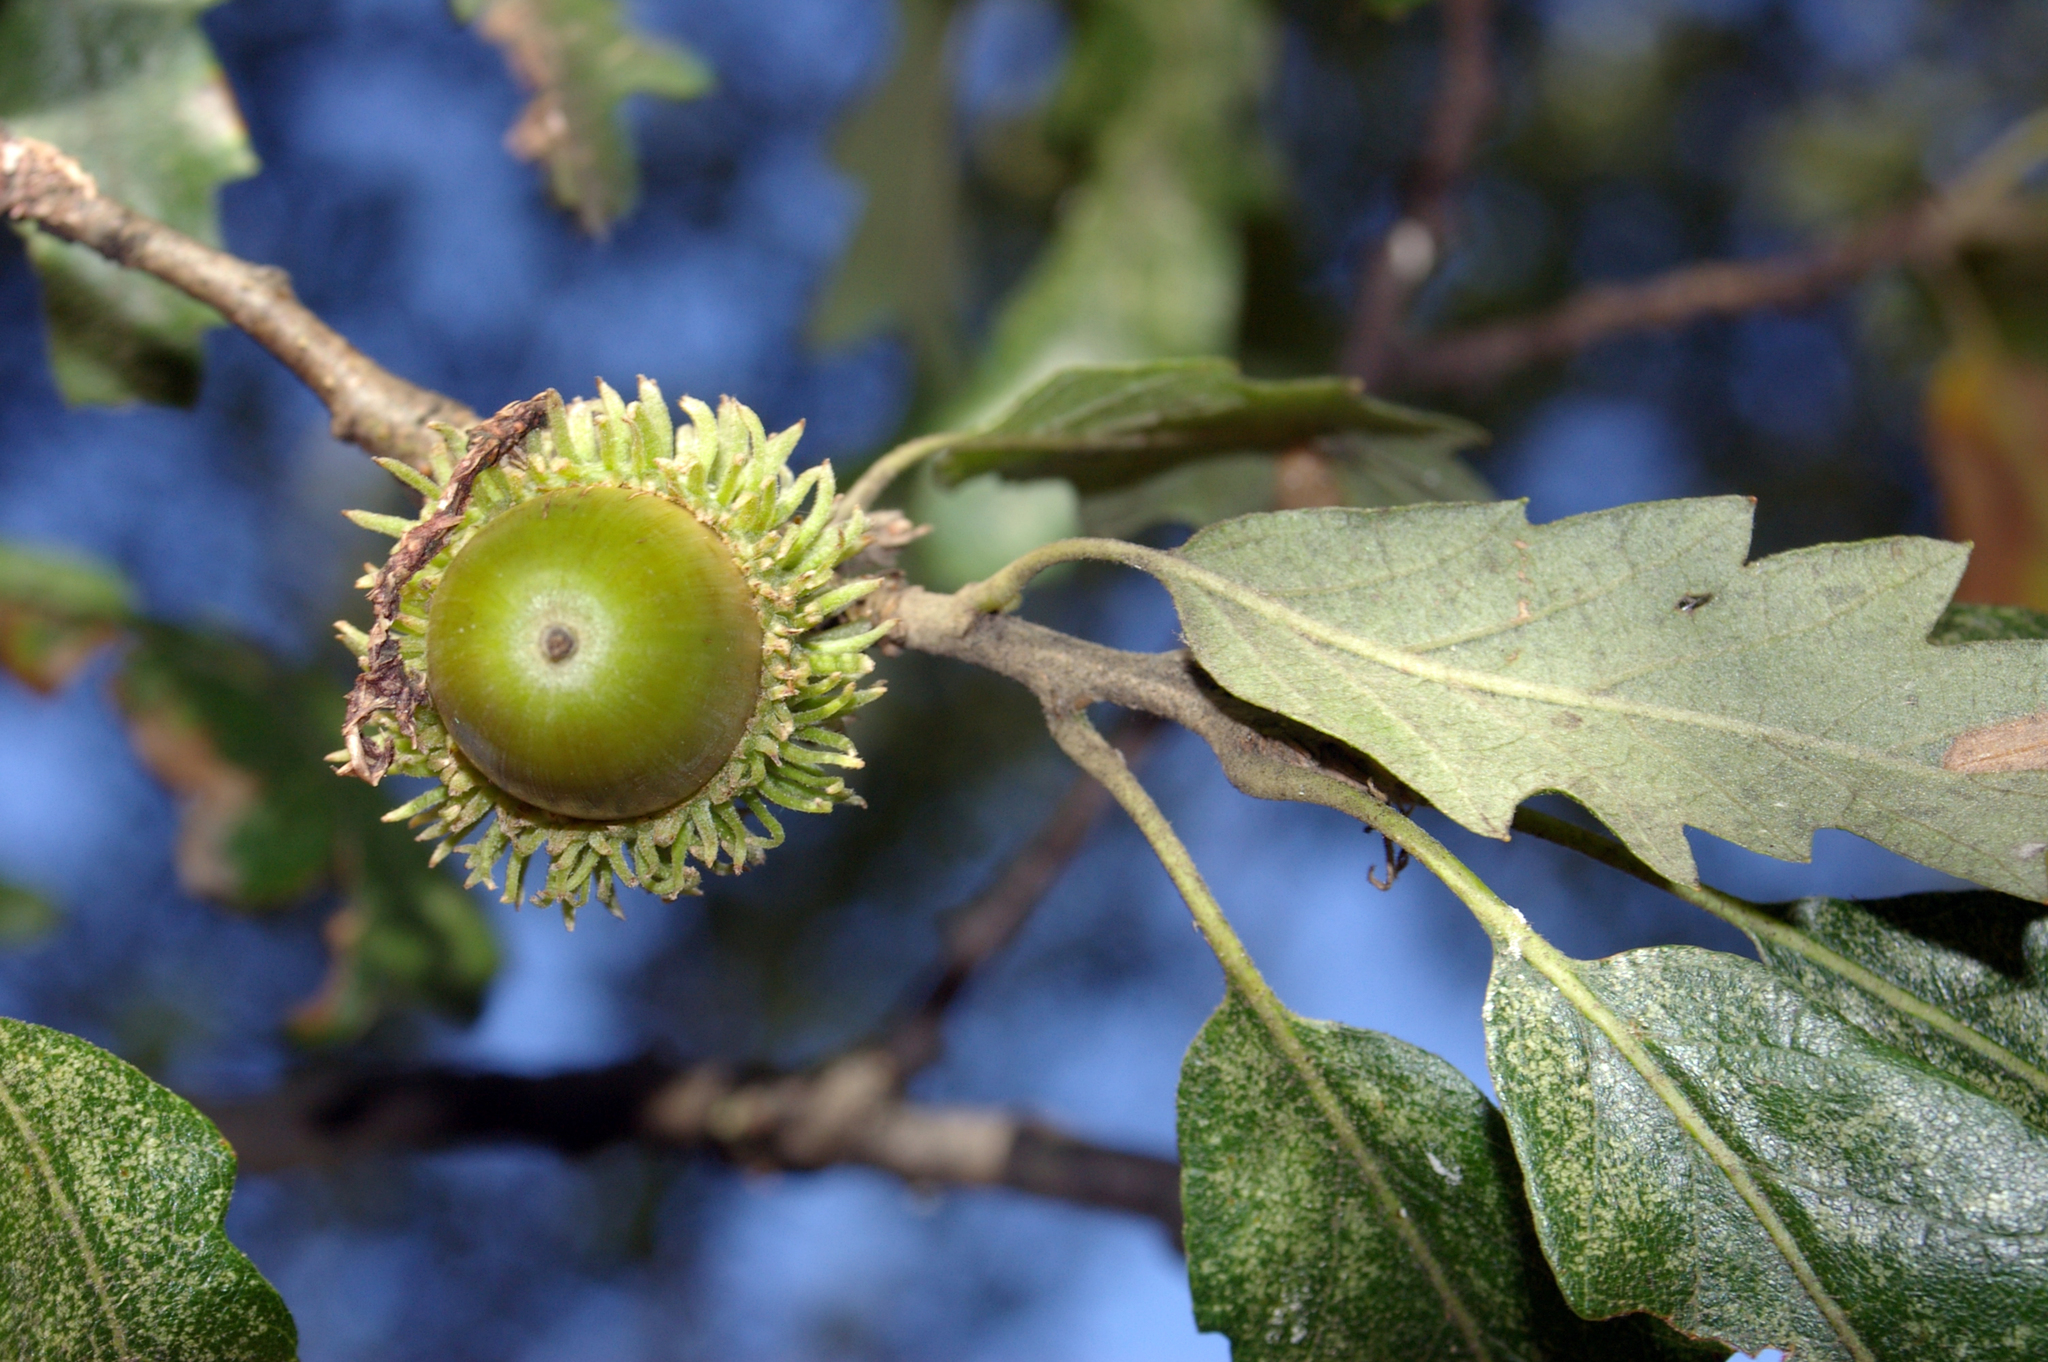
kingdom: Plantae
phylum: Tracheophyta
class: Magnoliopsida
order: Fagales
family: Fagaceae
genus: Quercus
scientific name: Quercus cerris
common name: Turkey oak
